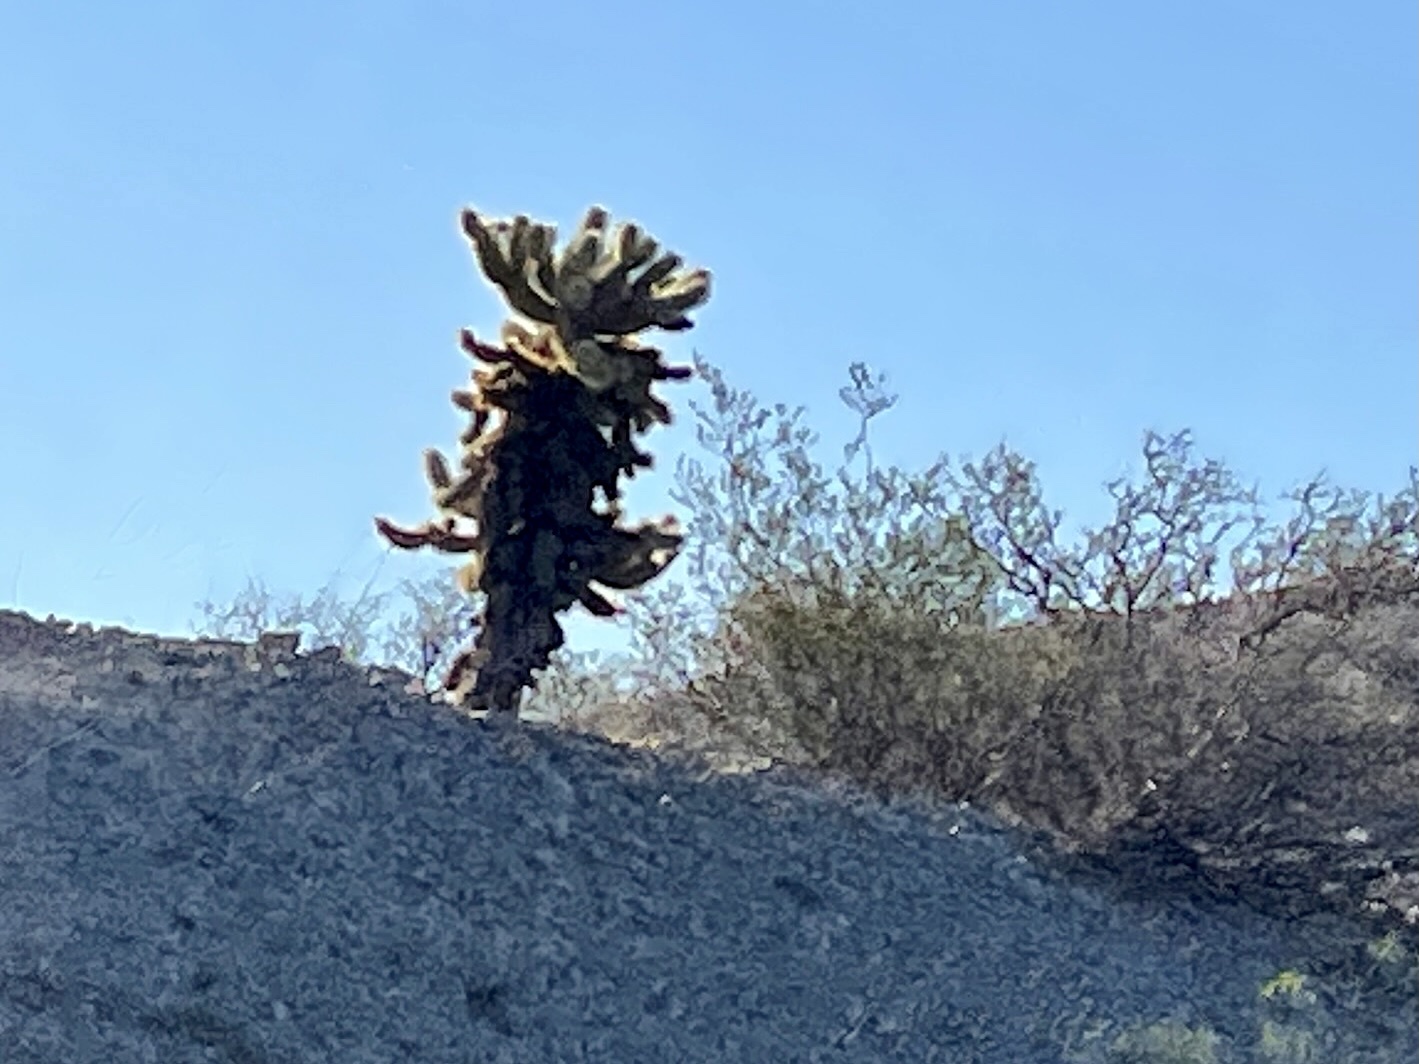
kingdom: Plantae
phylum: Tracheophyta
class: Magnoliopsida
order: Caryophyllales
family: Cactaceae
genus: Cylindropuntia
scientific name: Cylindropuntia fosbergii
